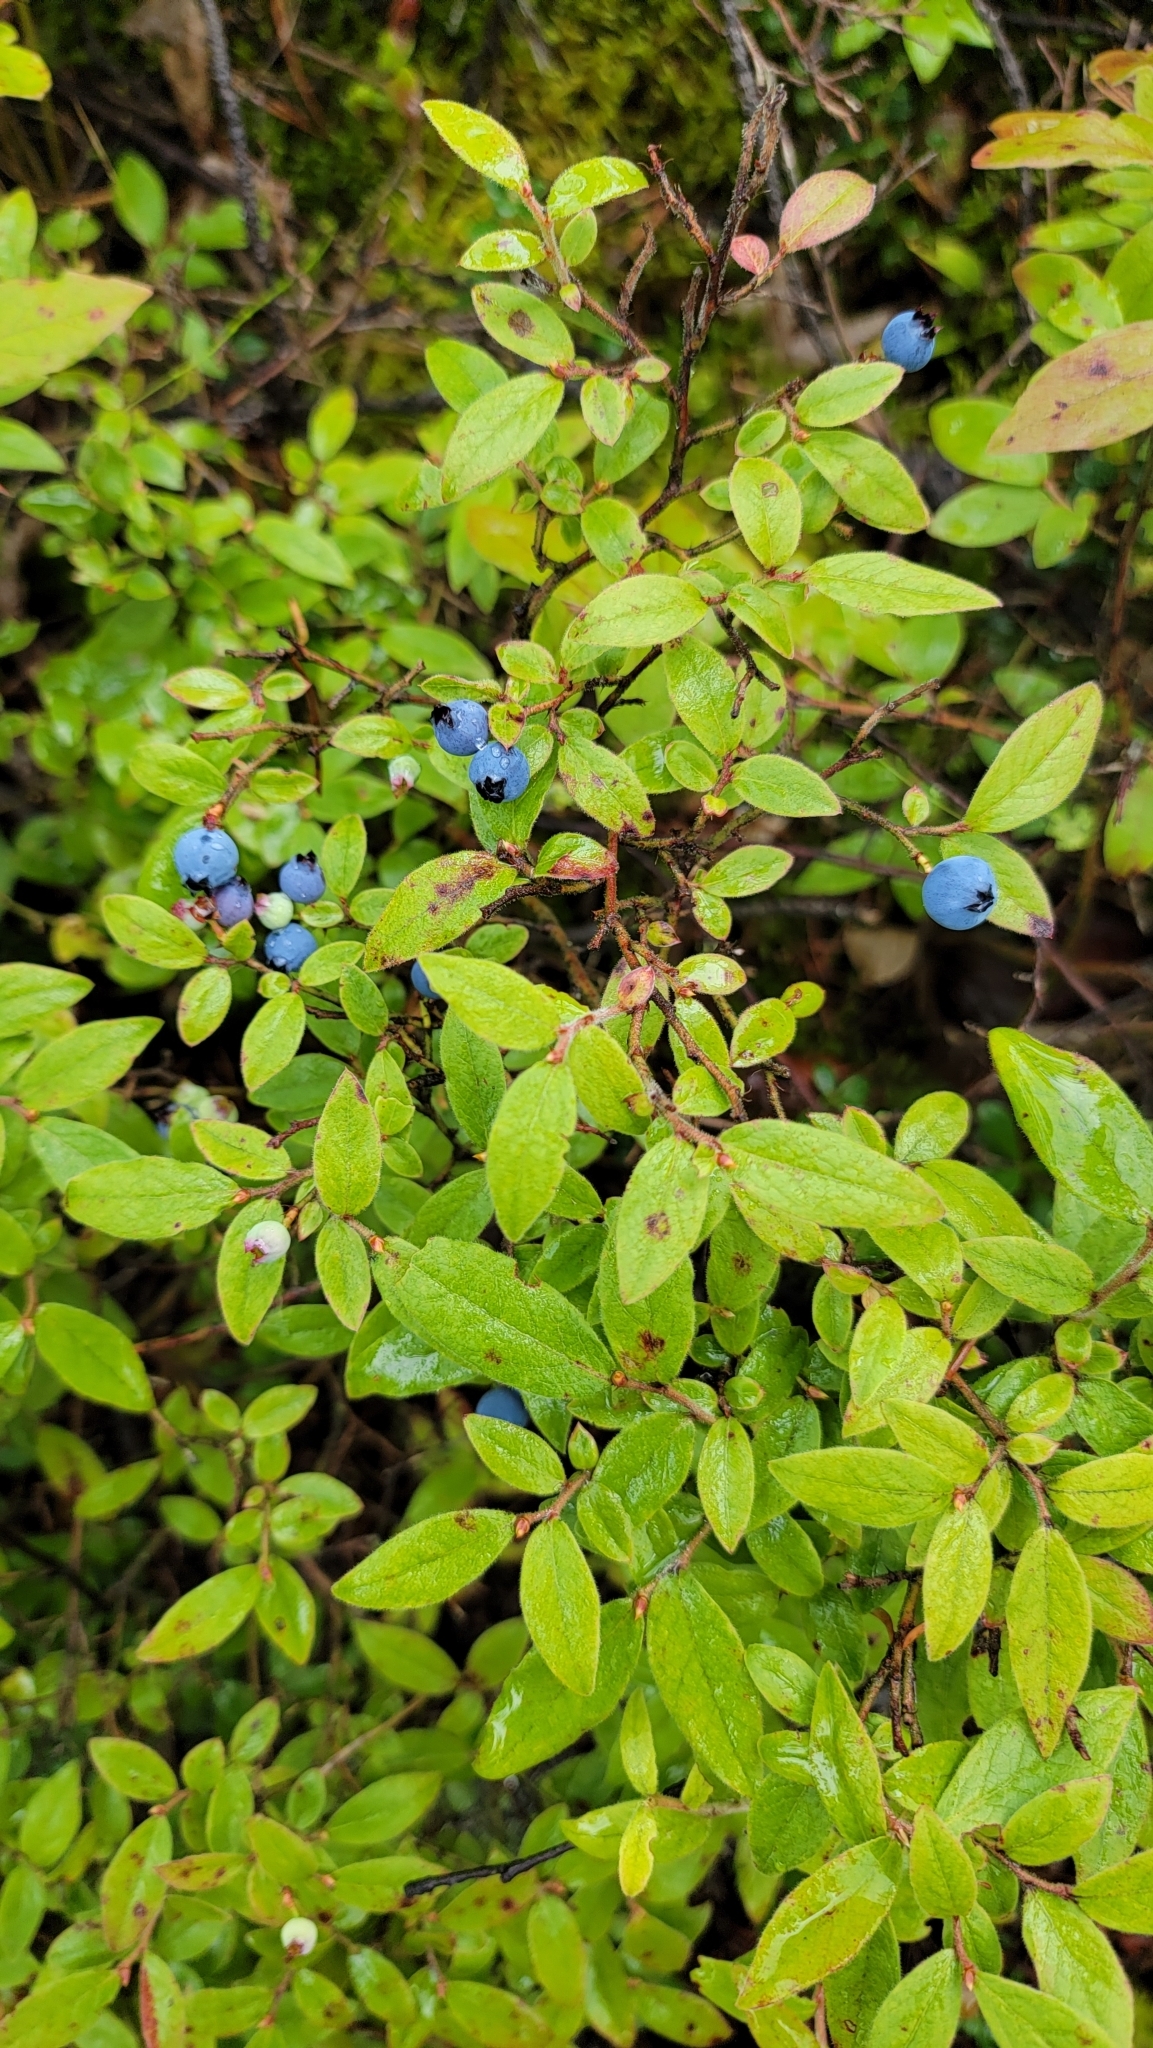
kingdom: Plantae
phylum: Tracheophyta
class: Magnoliopsida
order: Ericales
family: Ericaceae
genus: Vaccinium
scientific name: Vaccinium myrtilloides
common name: Canada blueberry
